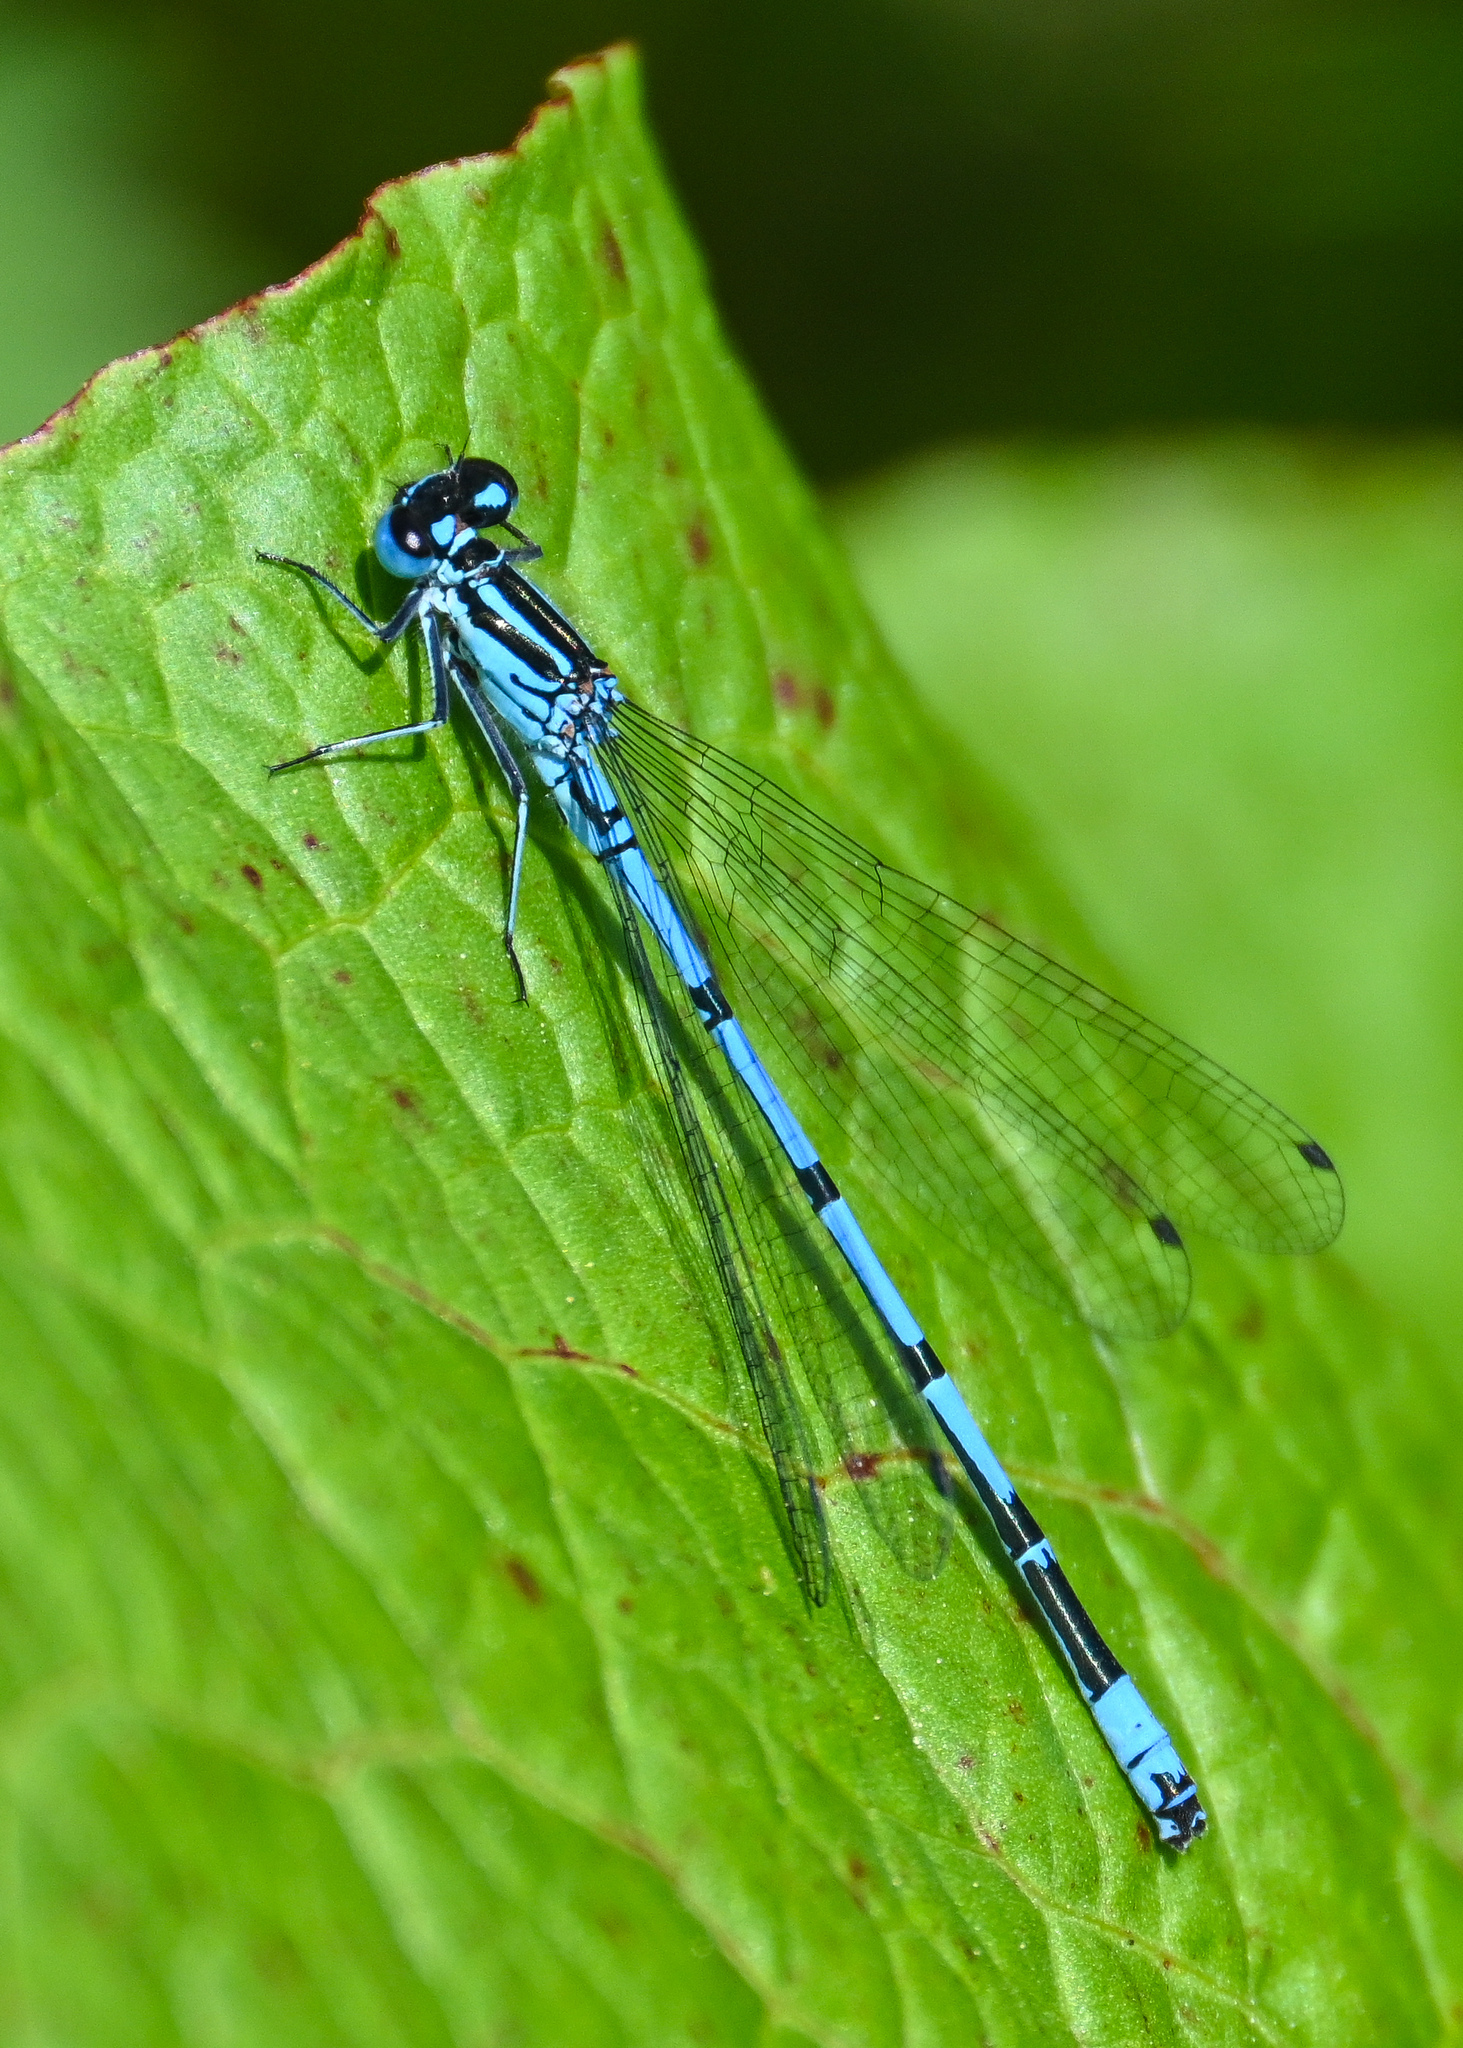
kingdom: Animalia
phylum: Arthropoda
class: Insecta
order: Odonata
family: Coenagrionidae
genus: Coenagrion
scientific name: Coenagrion puella
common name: Azure damselfly
